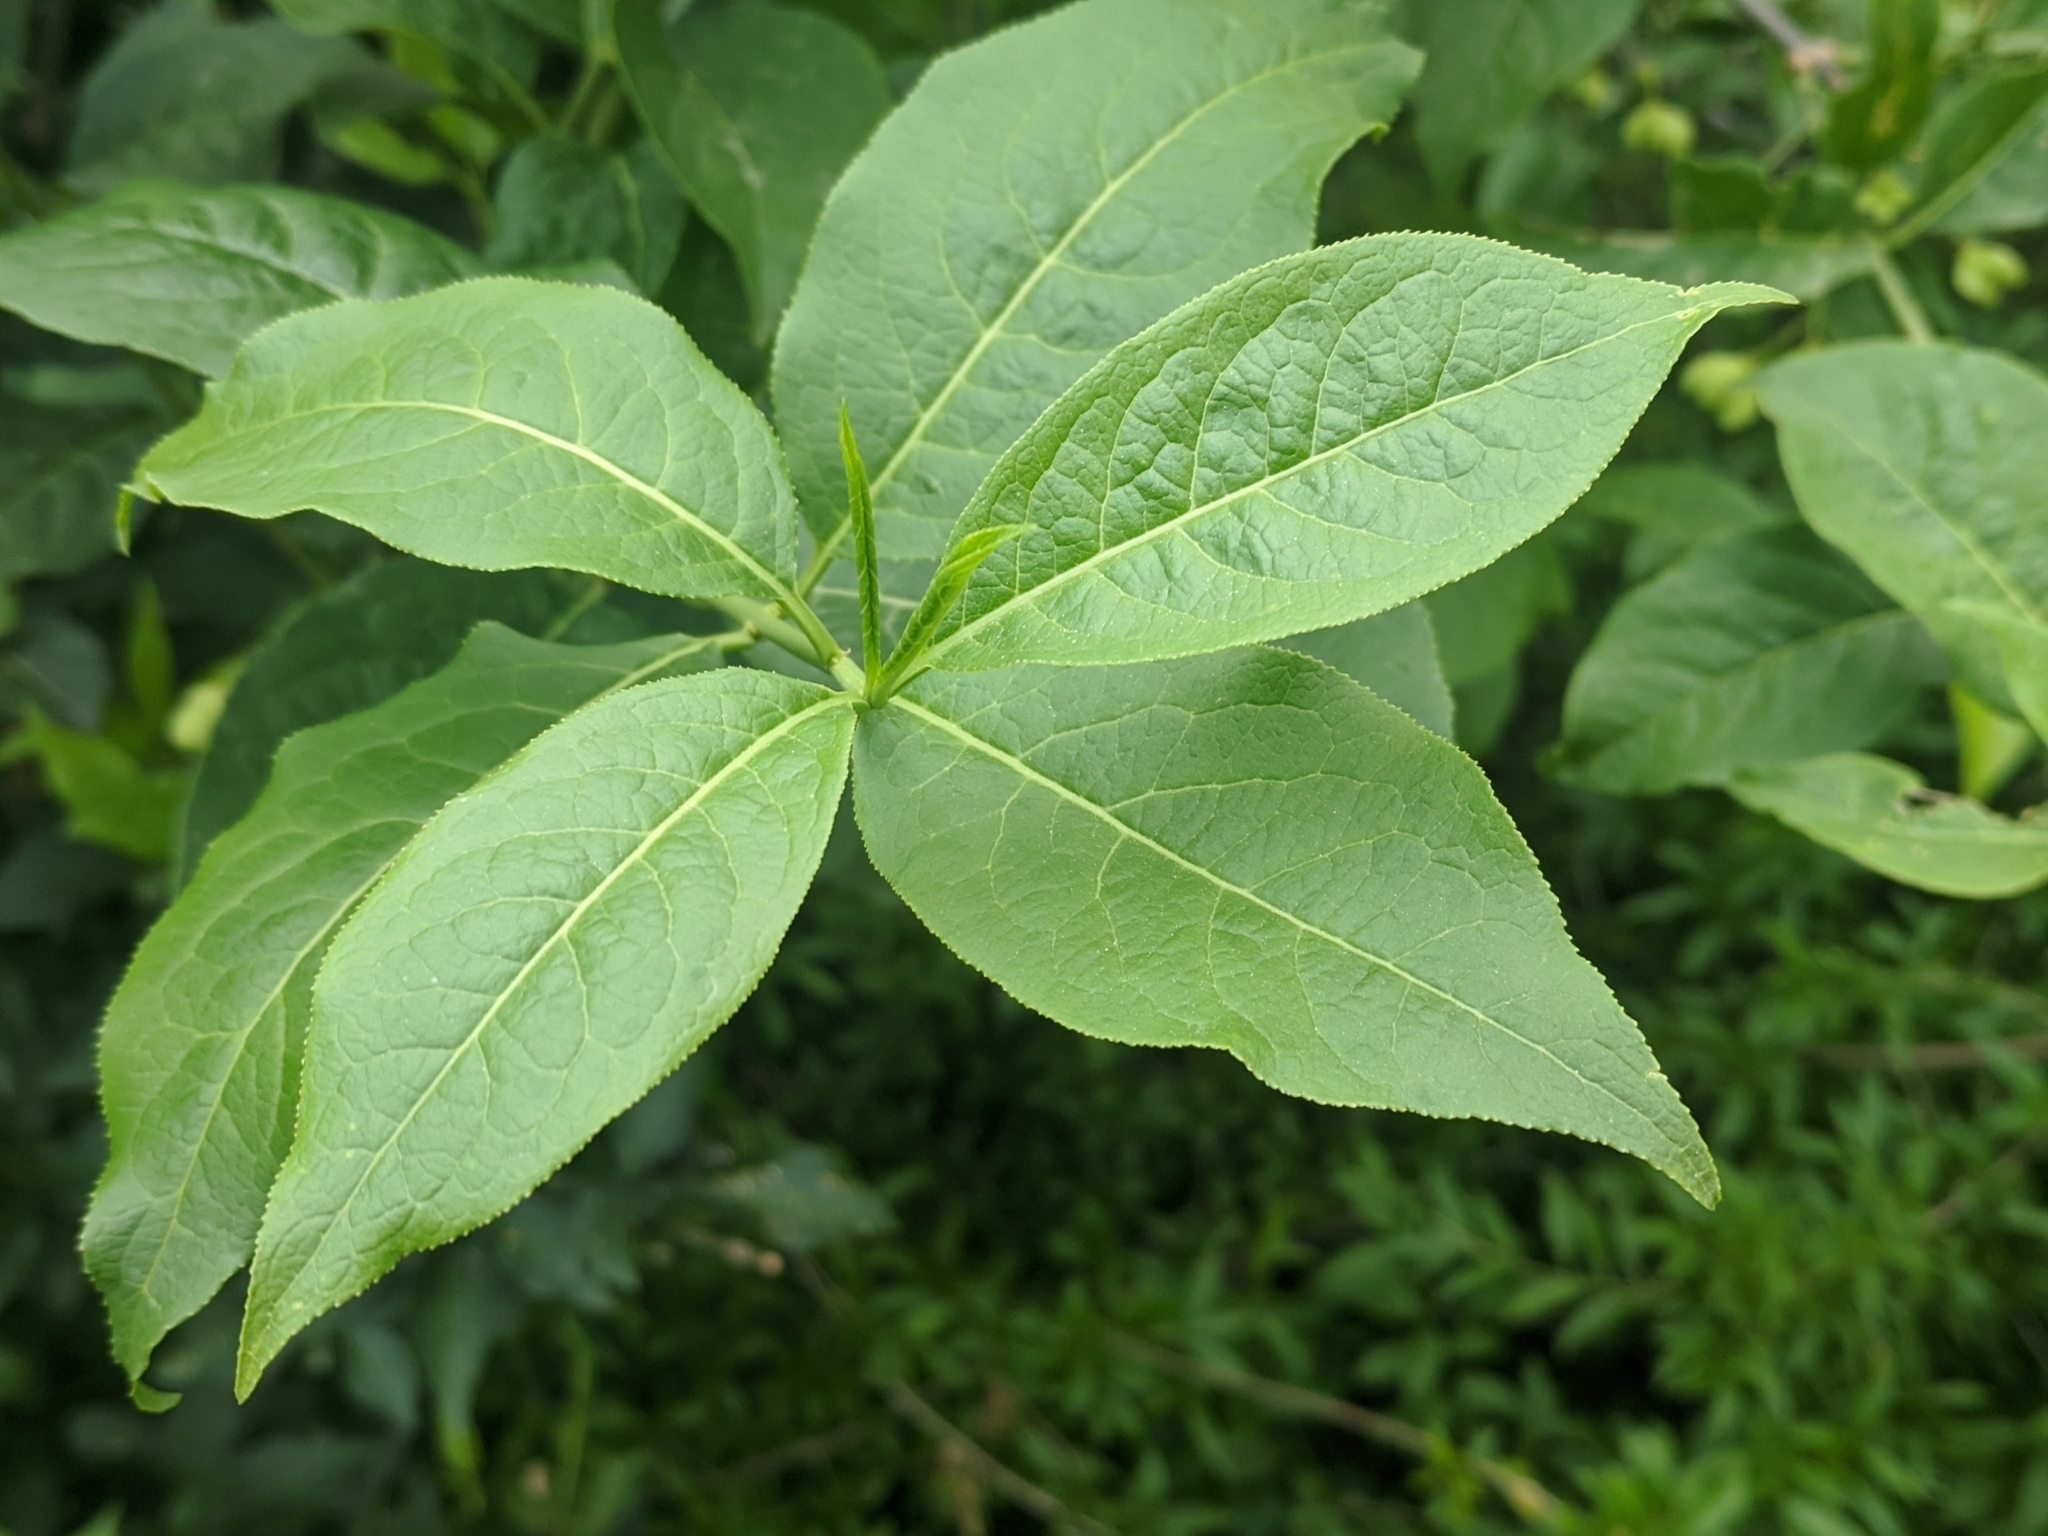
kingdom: Plantae
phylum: Tracheophyta
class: Magnoliopsida
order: Celastrales
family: Celastraceae
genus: Euonymus
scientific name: Euonymus europaeus
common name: Spindle
